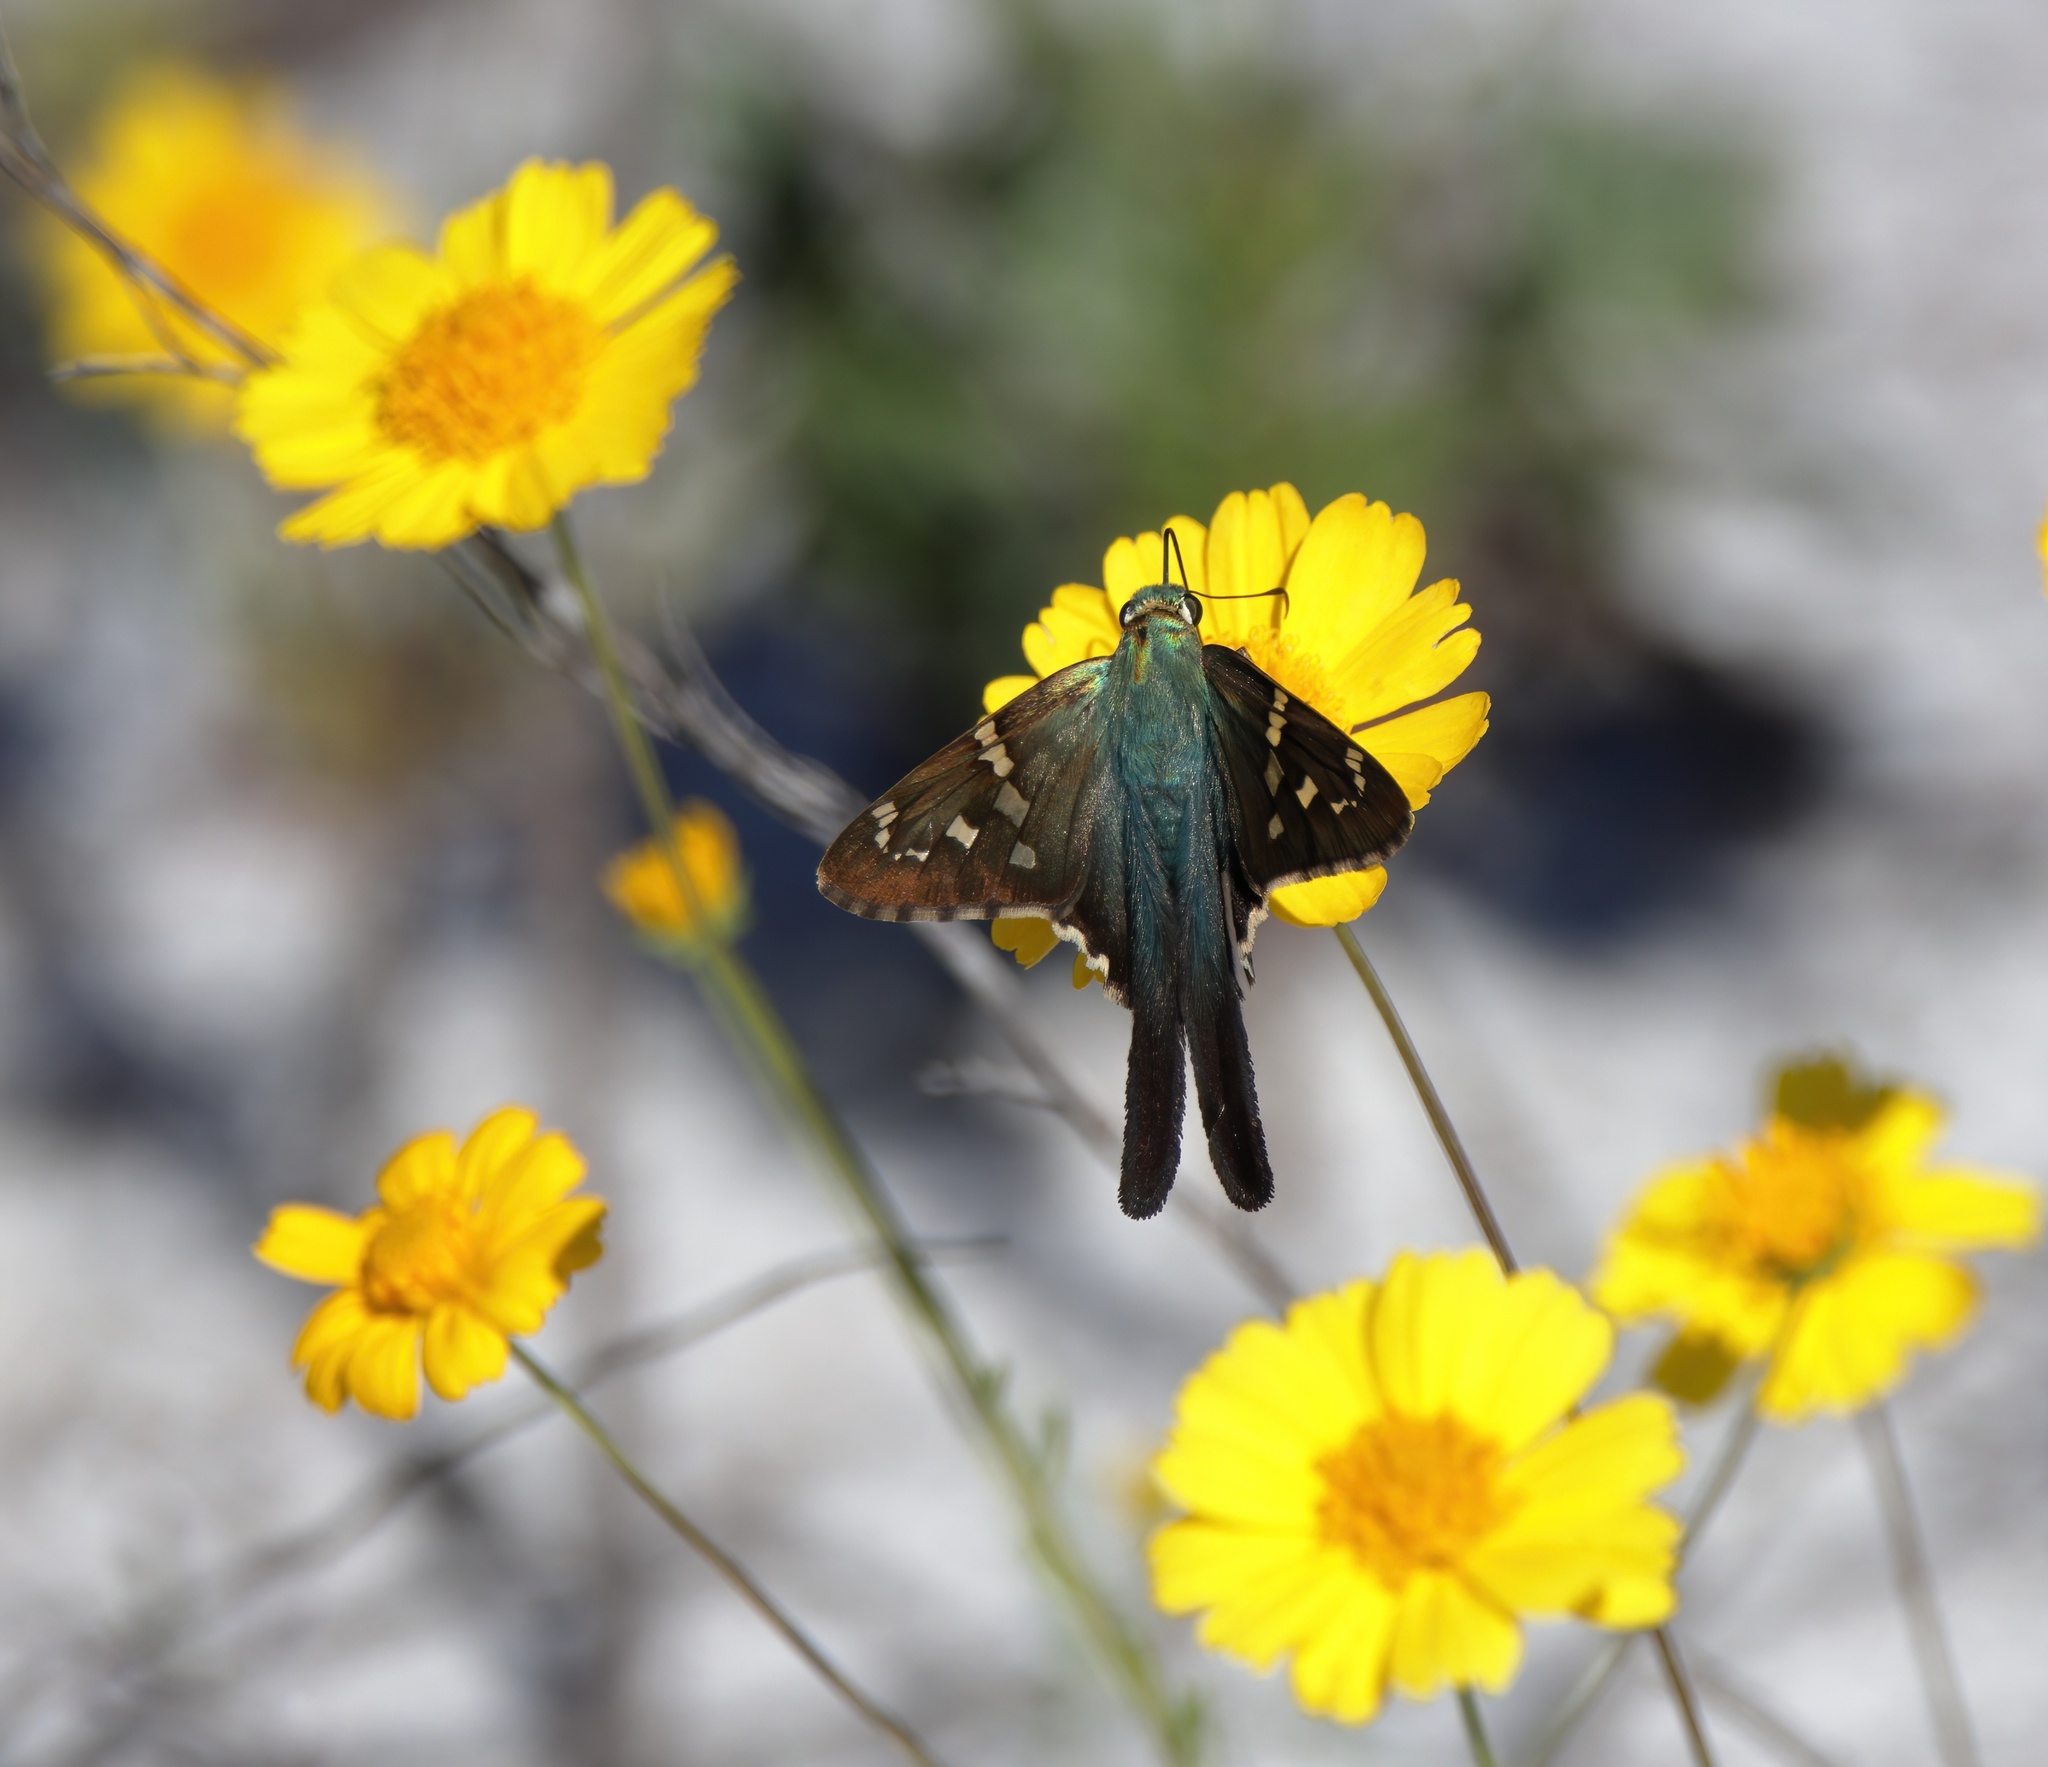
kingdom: Animalia
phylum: Arthropoda
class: Insecta
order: Lepidoptera
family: Hesperiidae
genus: Urbanus
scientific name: Urbanus proteus
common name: Long-tailed skipper
